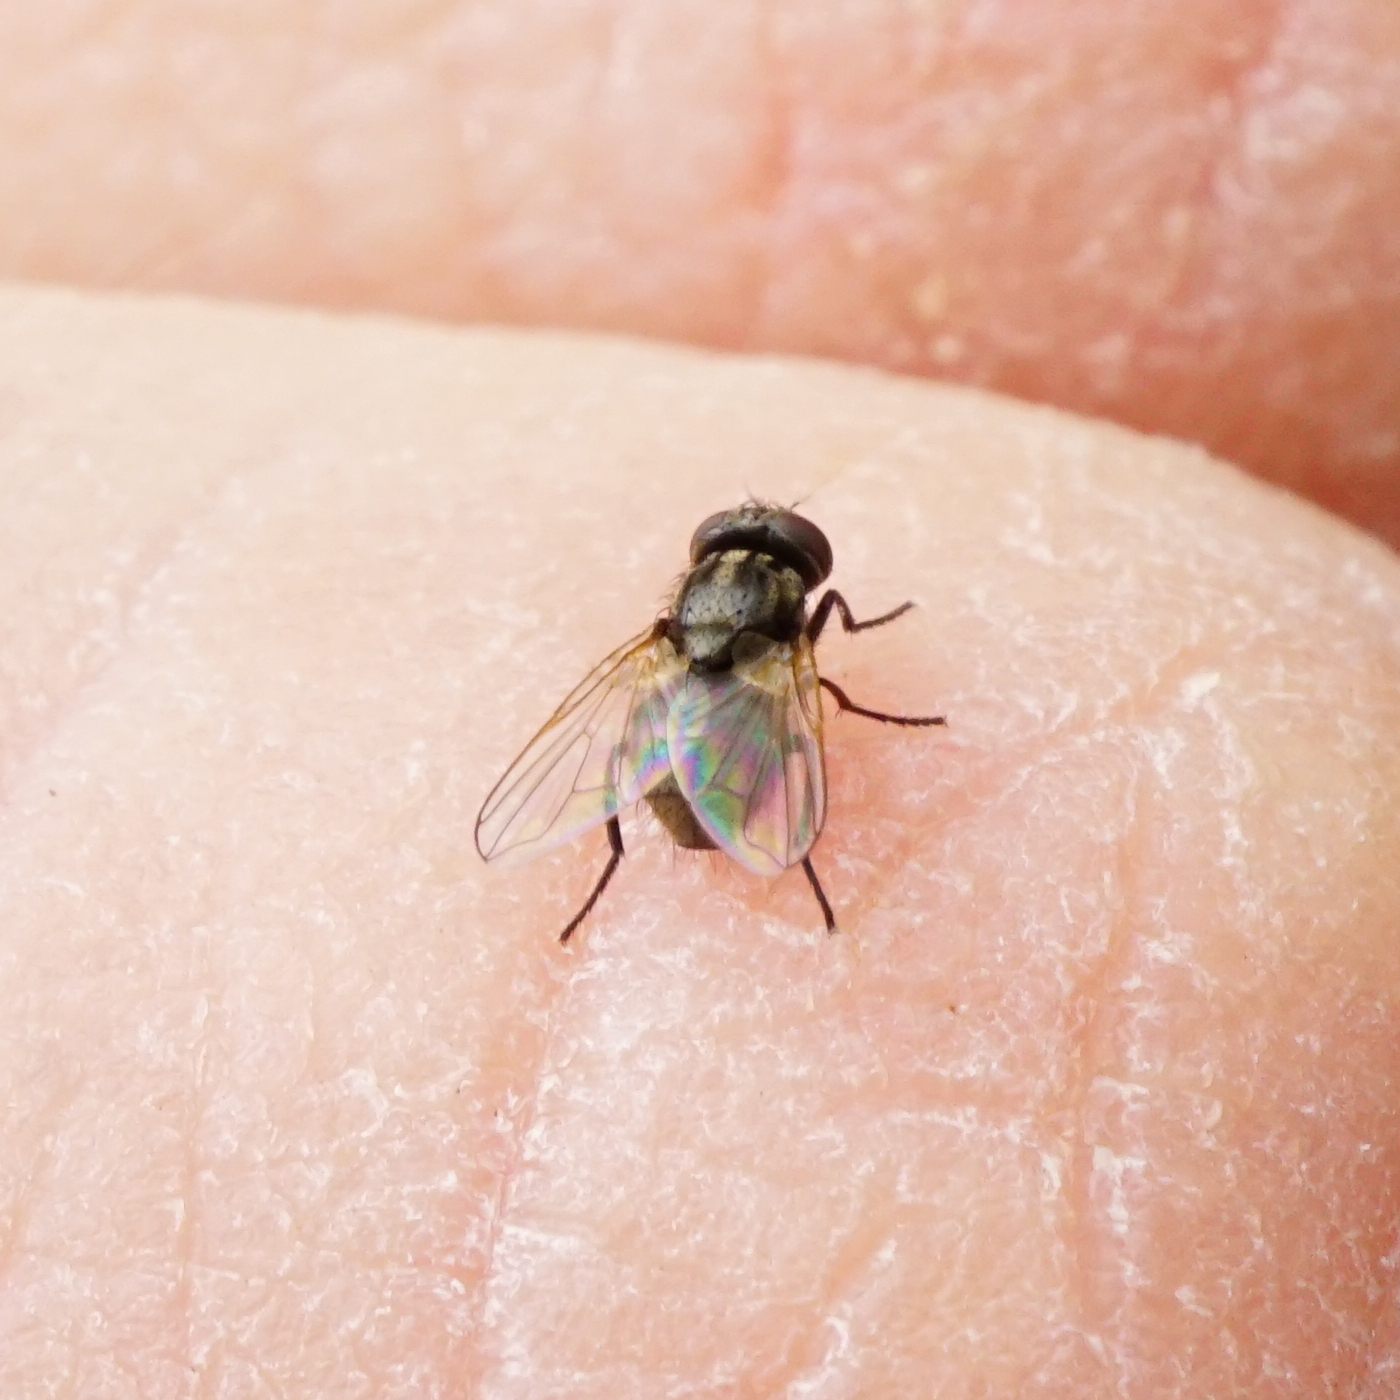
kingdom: Animalia
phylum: Arthropoda
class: Insecta
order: Diptera
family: Muscidae
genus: Musca
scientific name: Musca tempestiva
